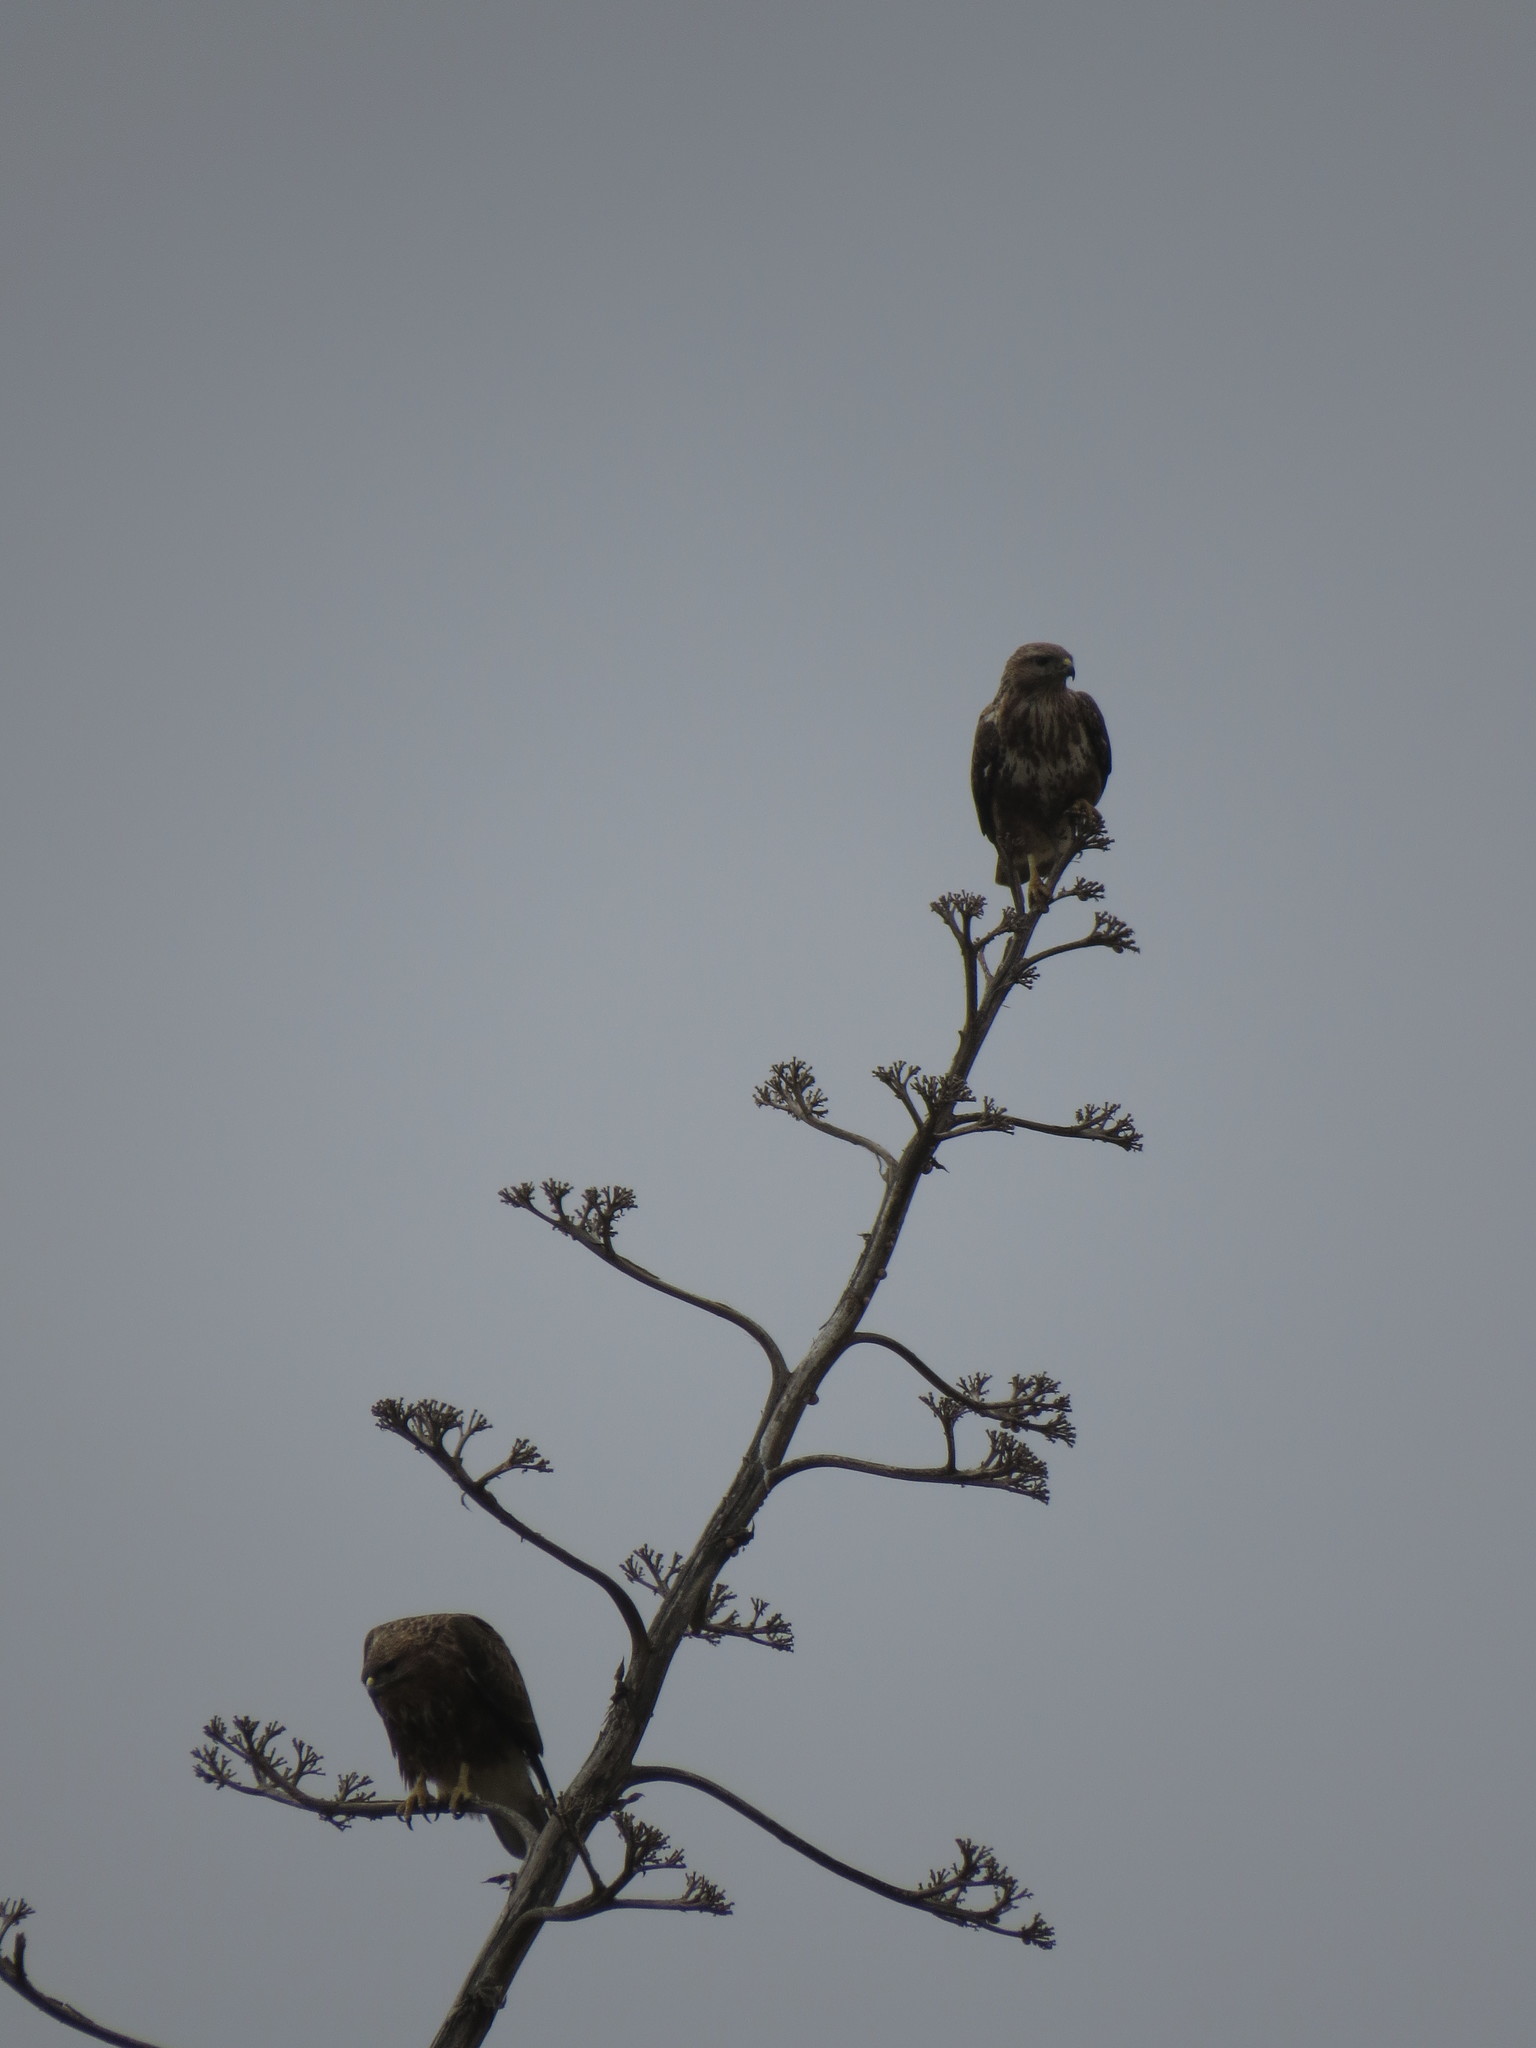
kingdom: Animalia
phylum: Chordata
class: Aves
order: Accipitriformes
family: Accipitridae
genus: Buteo
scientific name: Buteo buteo
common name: Common buzzard
